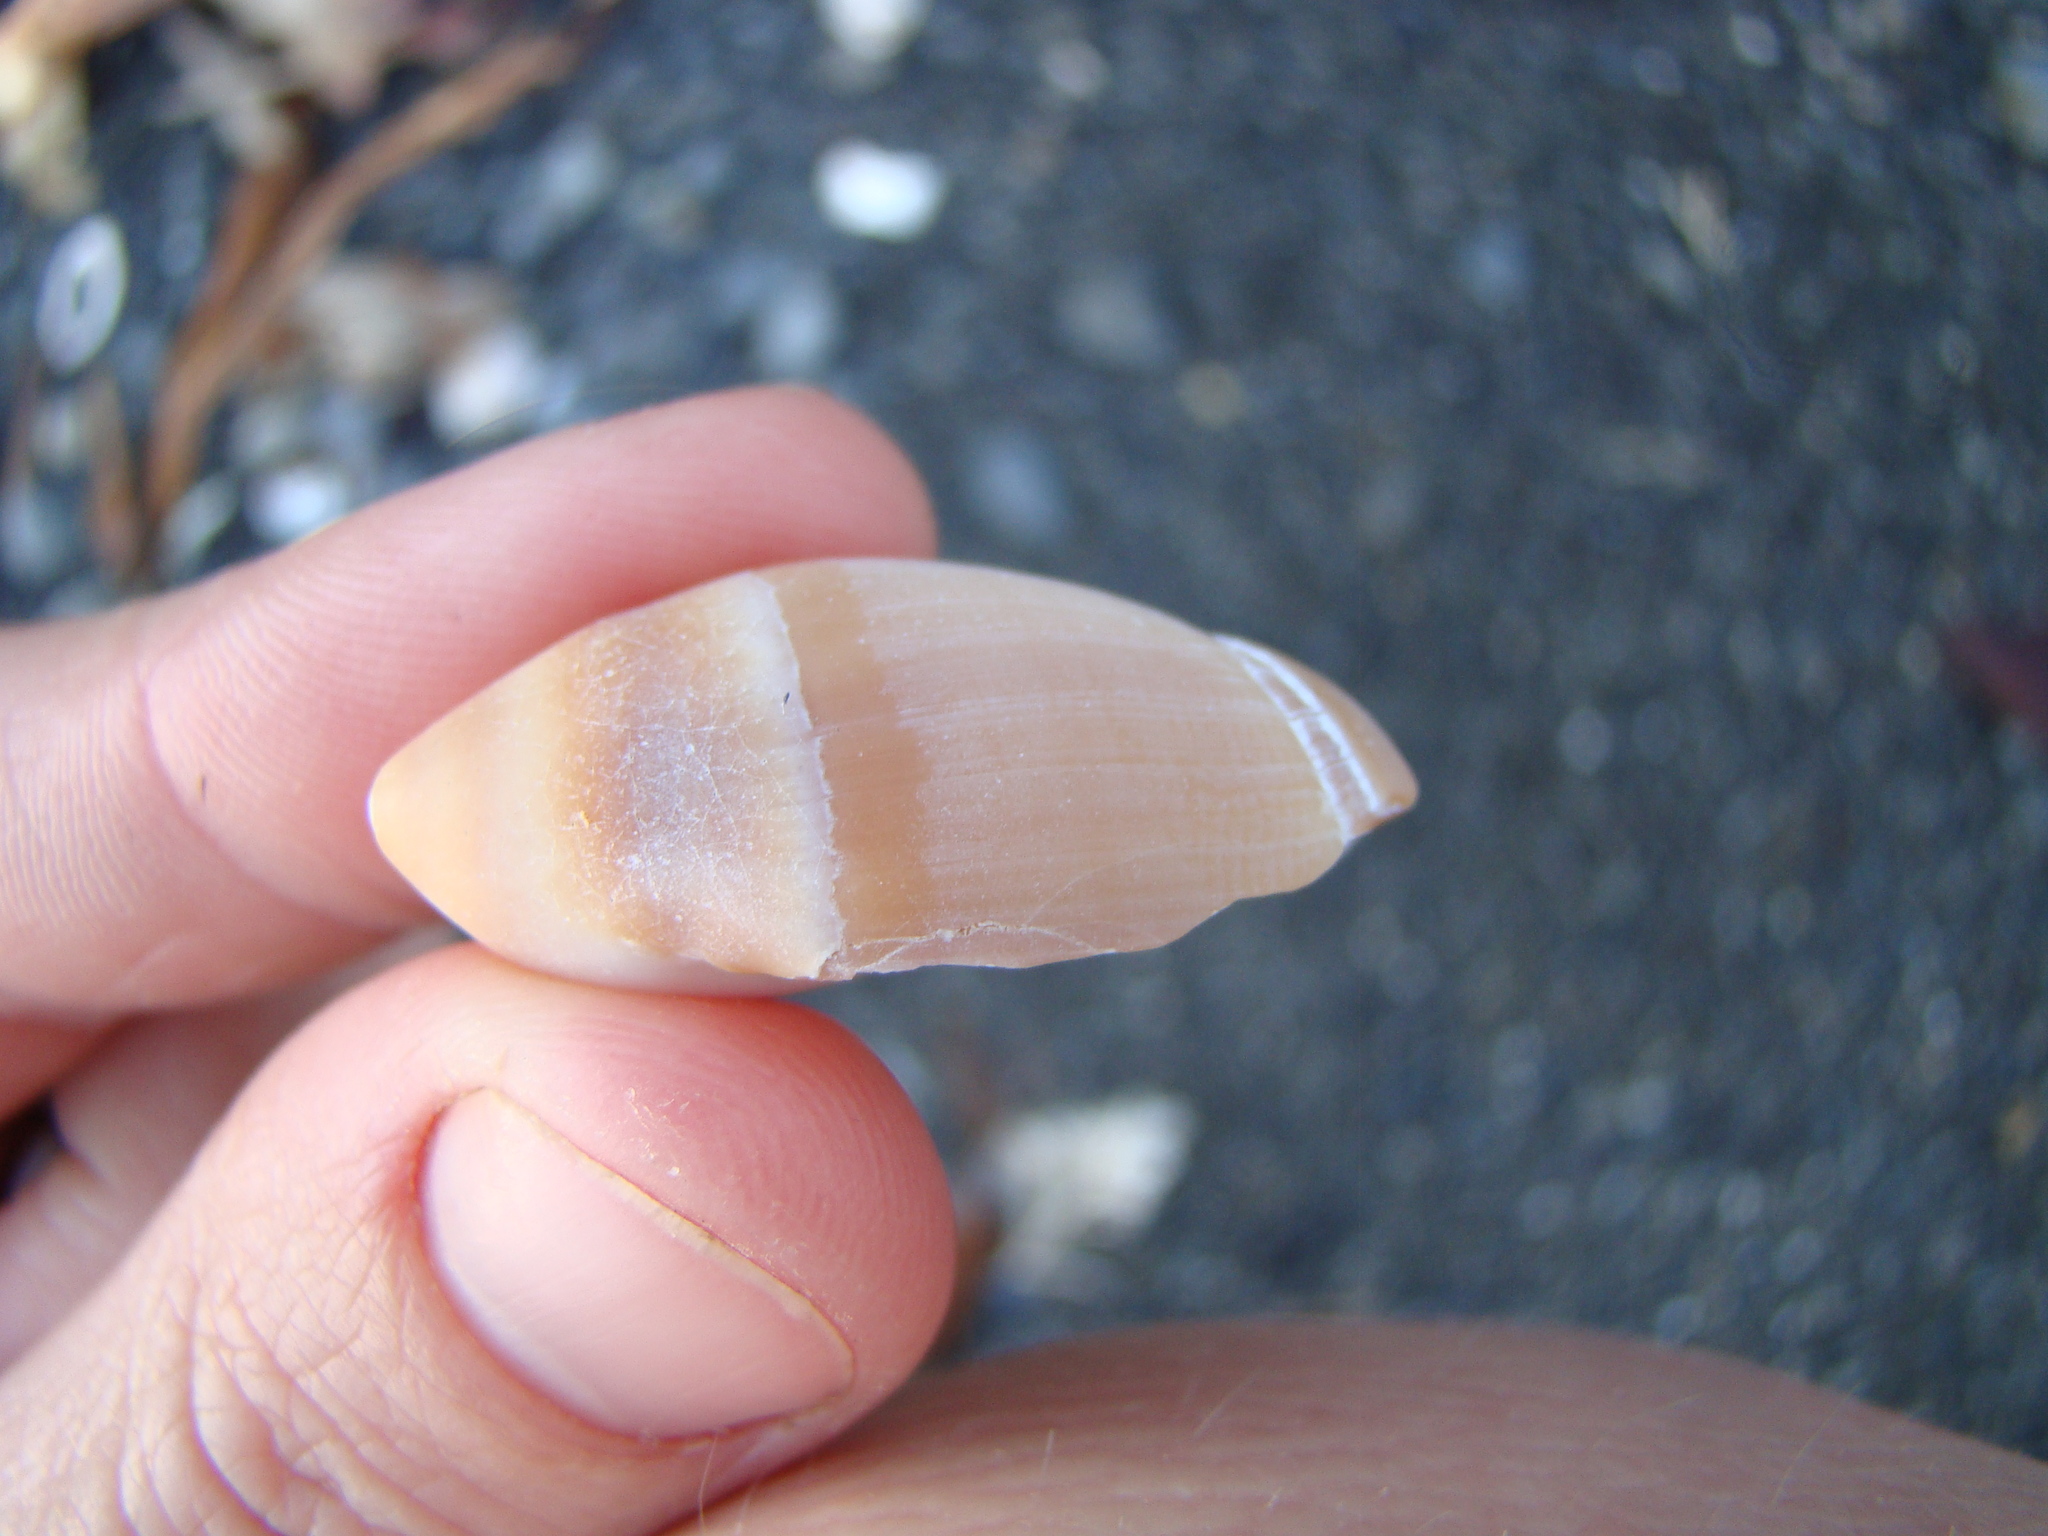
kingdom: Animalia
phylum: Mollusca
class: Gastropoda
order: Neogastropoda
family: Ancillariidae
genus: Amalda
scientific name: Amalda mucronata
